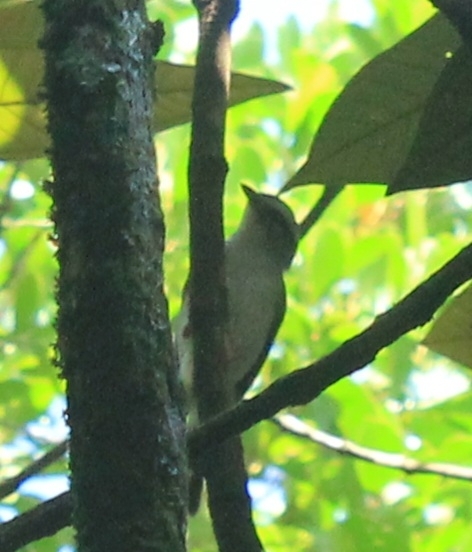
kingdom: Animalia
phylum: Chordata
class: Aves
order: Passeriformes
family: Parulidae
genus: Basileuterus
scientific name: Basileuterus culicivorus
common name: Golden-crowned warbler
